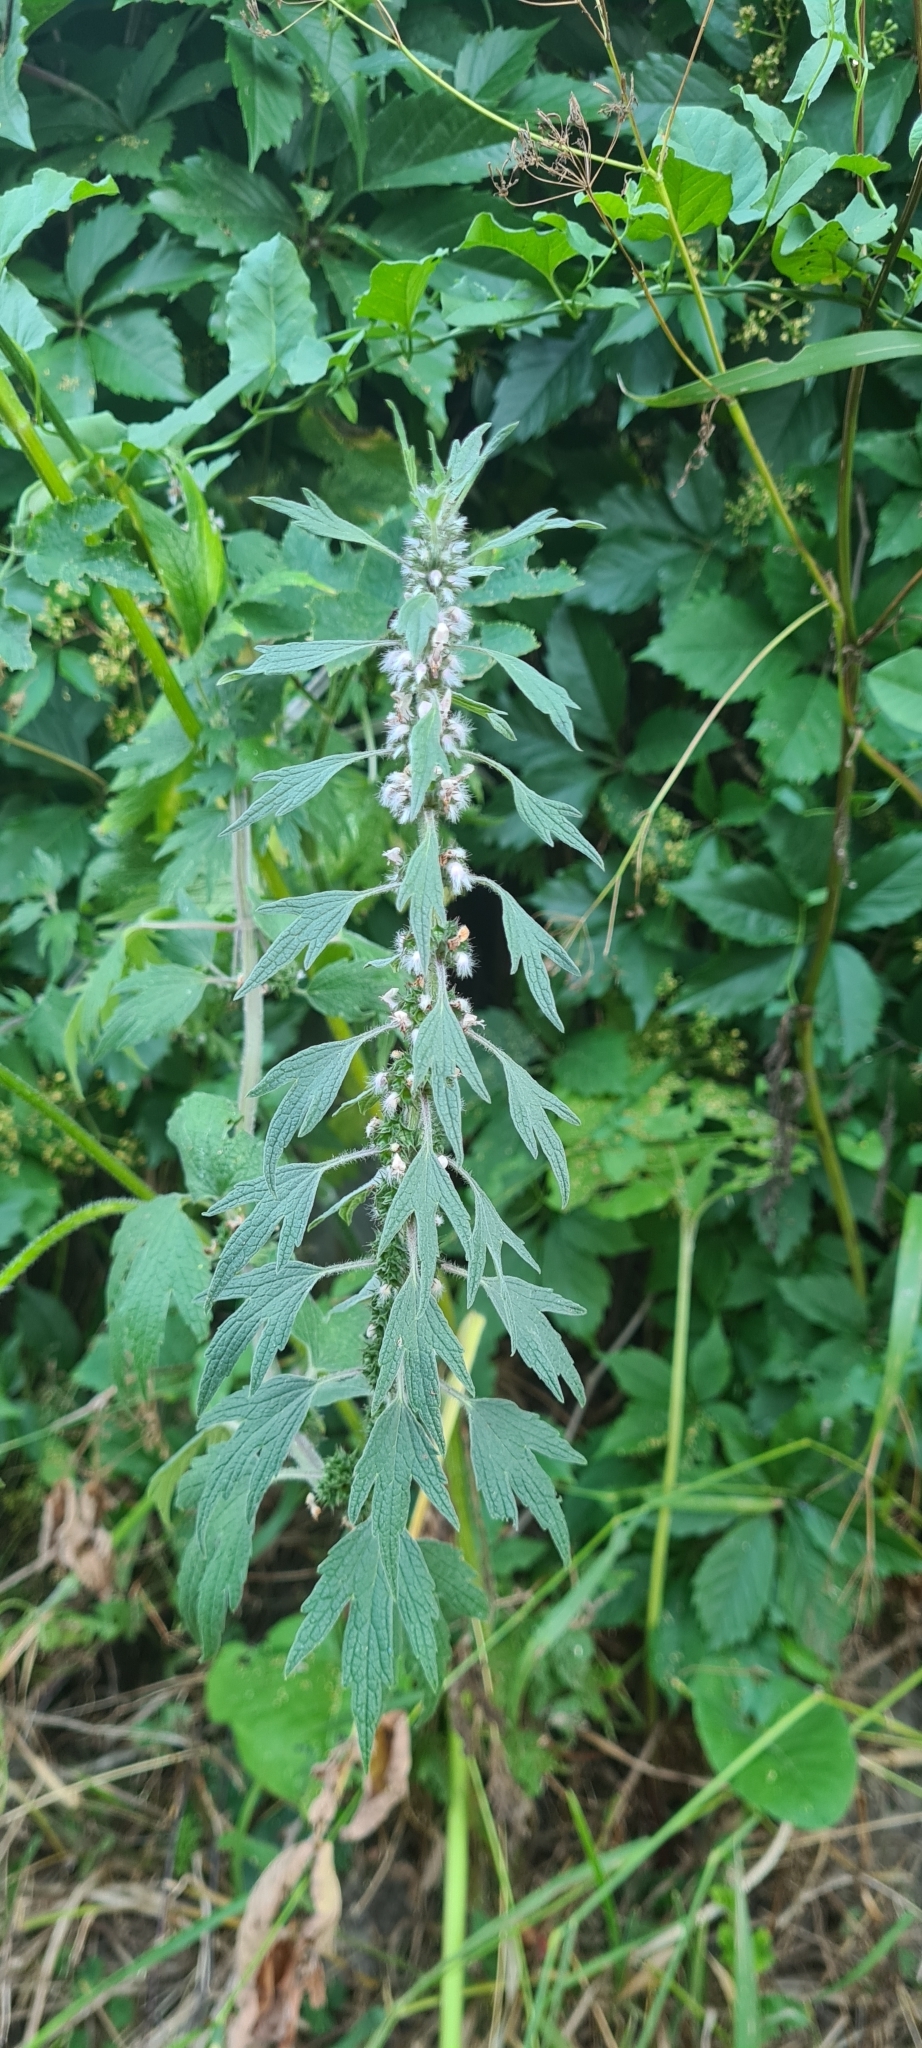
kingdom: Plantae
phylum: Tracheophyta
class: Magnoliopsida
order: Lamiales
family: Lamiaceae
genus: Leonurus
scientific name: Leonurus quinquelobatus
